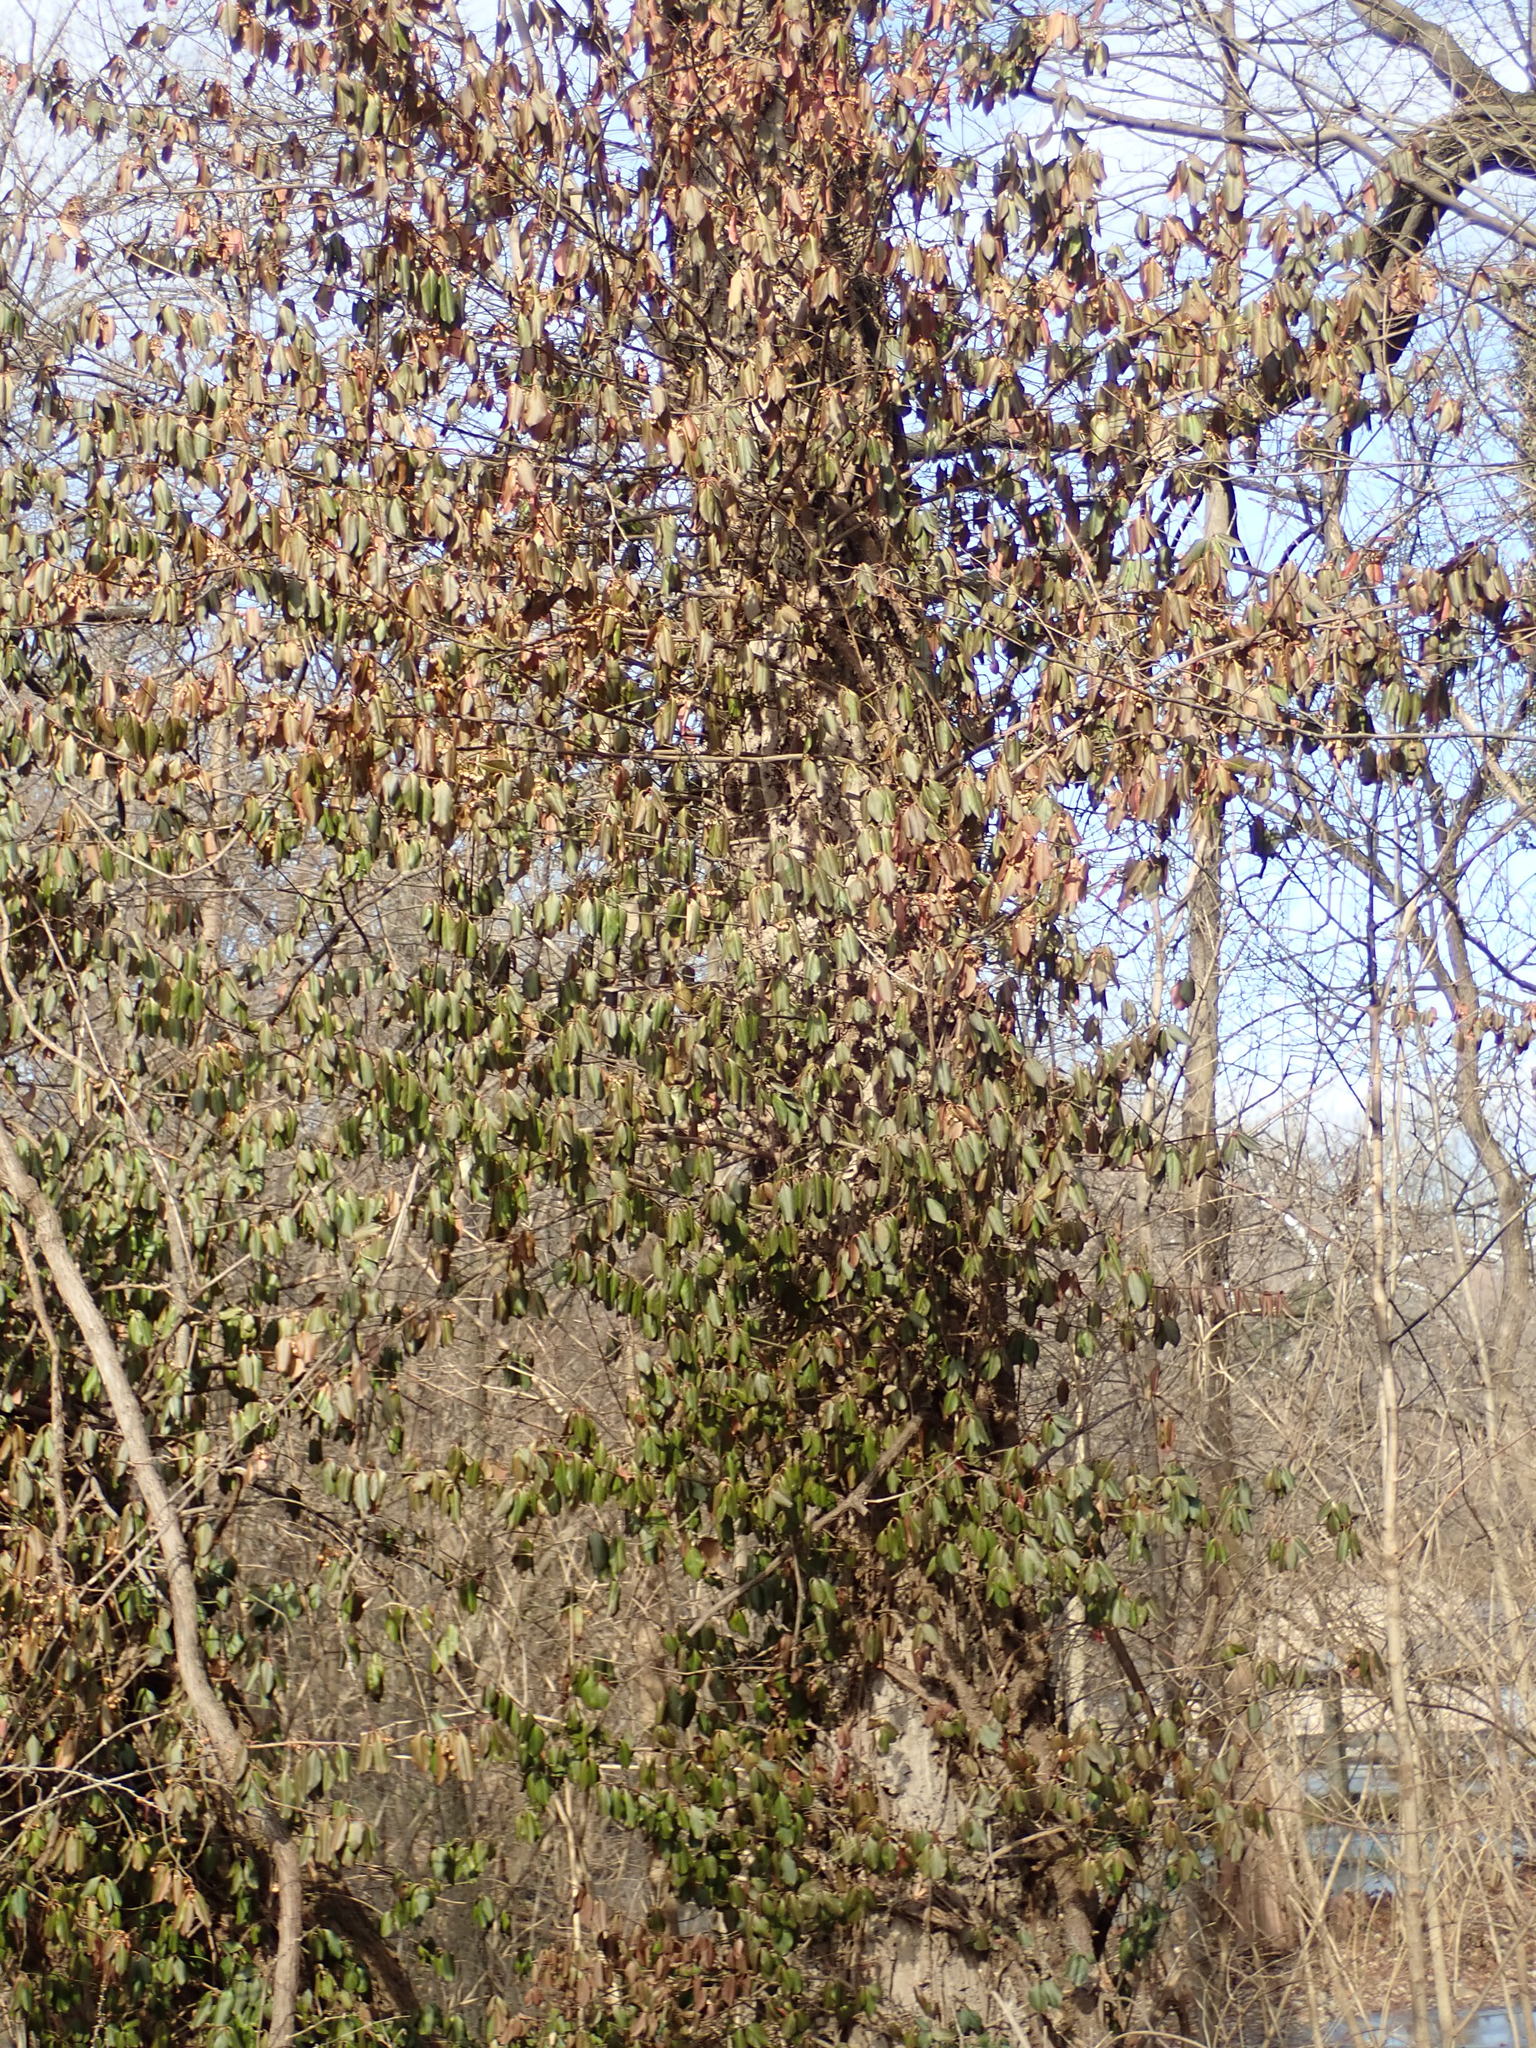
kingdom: Plantae
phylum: Tracheophyta
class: Magnoliopsida
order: Celastrales
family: Celastraceae
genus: Euonymus
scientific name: Euonymus fortunei
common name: Climbing euonymus
